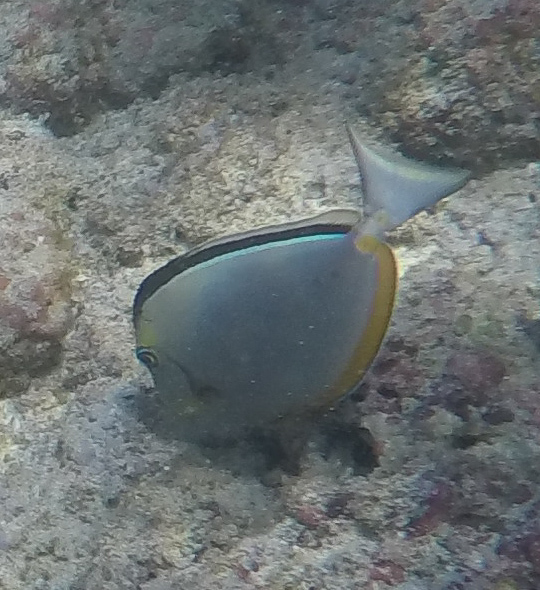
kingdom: Animalia
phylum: Chordata
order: Perciformes
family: Acanthuridae
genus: Naso
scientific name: Naso lituratus
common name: Orangespine unicornfish
